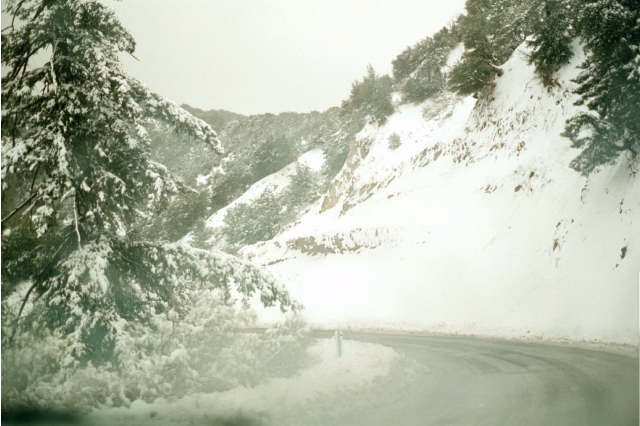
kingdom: Plantae
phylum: Tracheophyta
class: Pinopsida
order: Pinales
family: Pinaceae
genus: Pseudotsuga
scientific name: Pseudotsuga macrocarpa
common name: Big-cone douglas-fir
